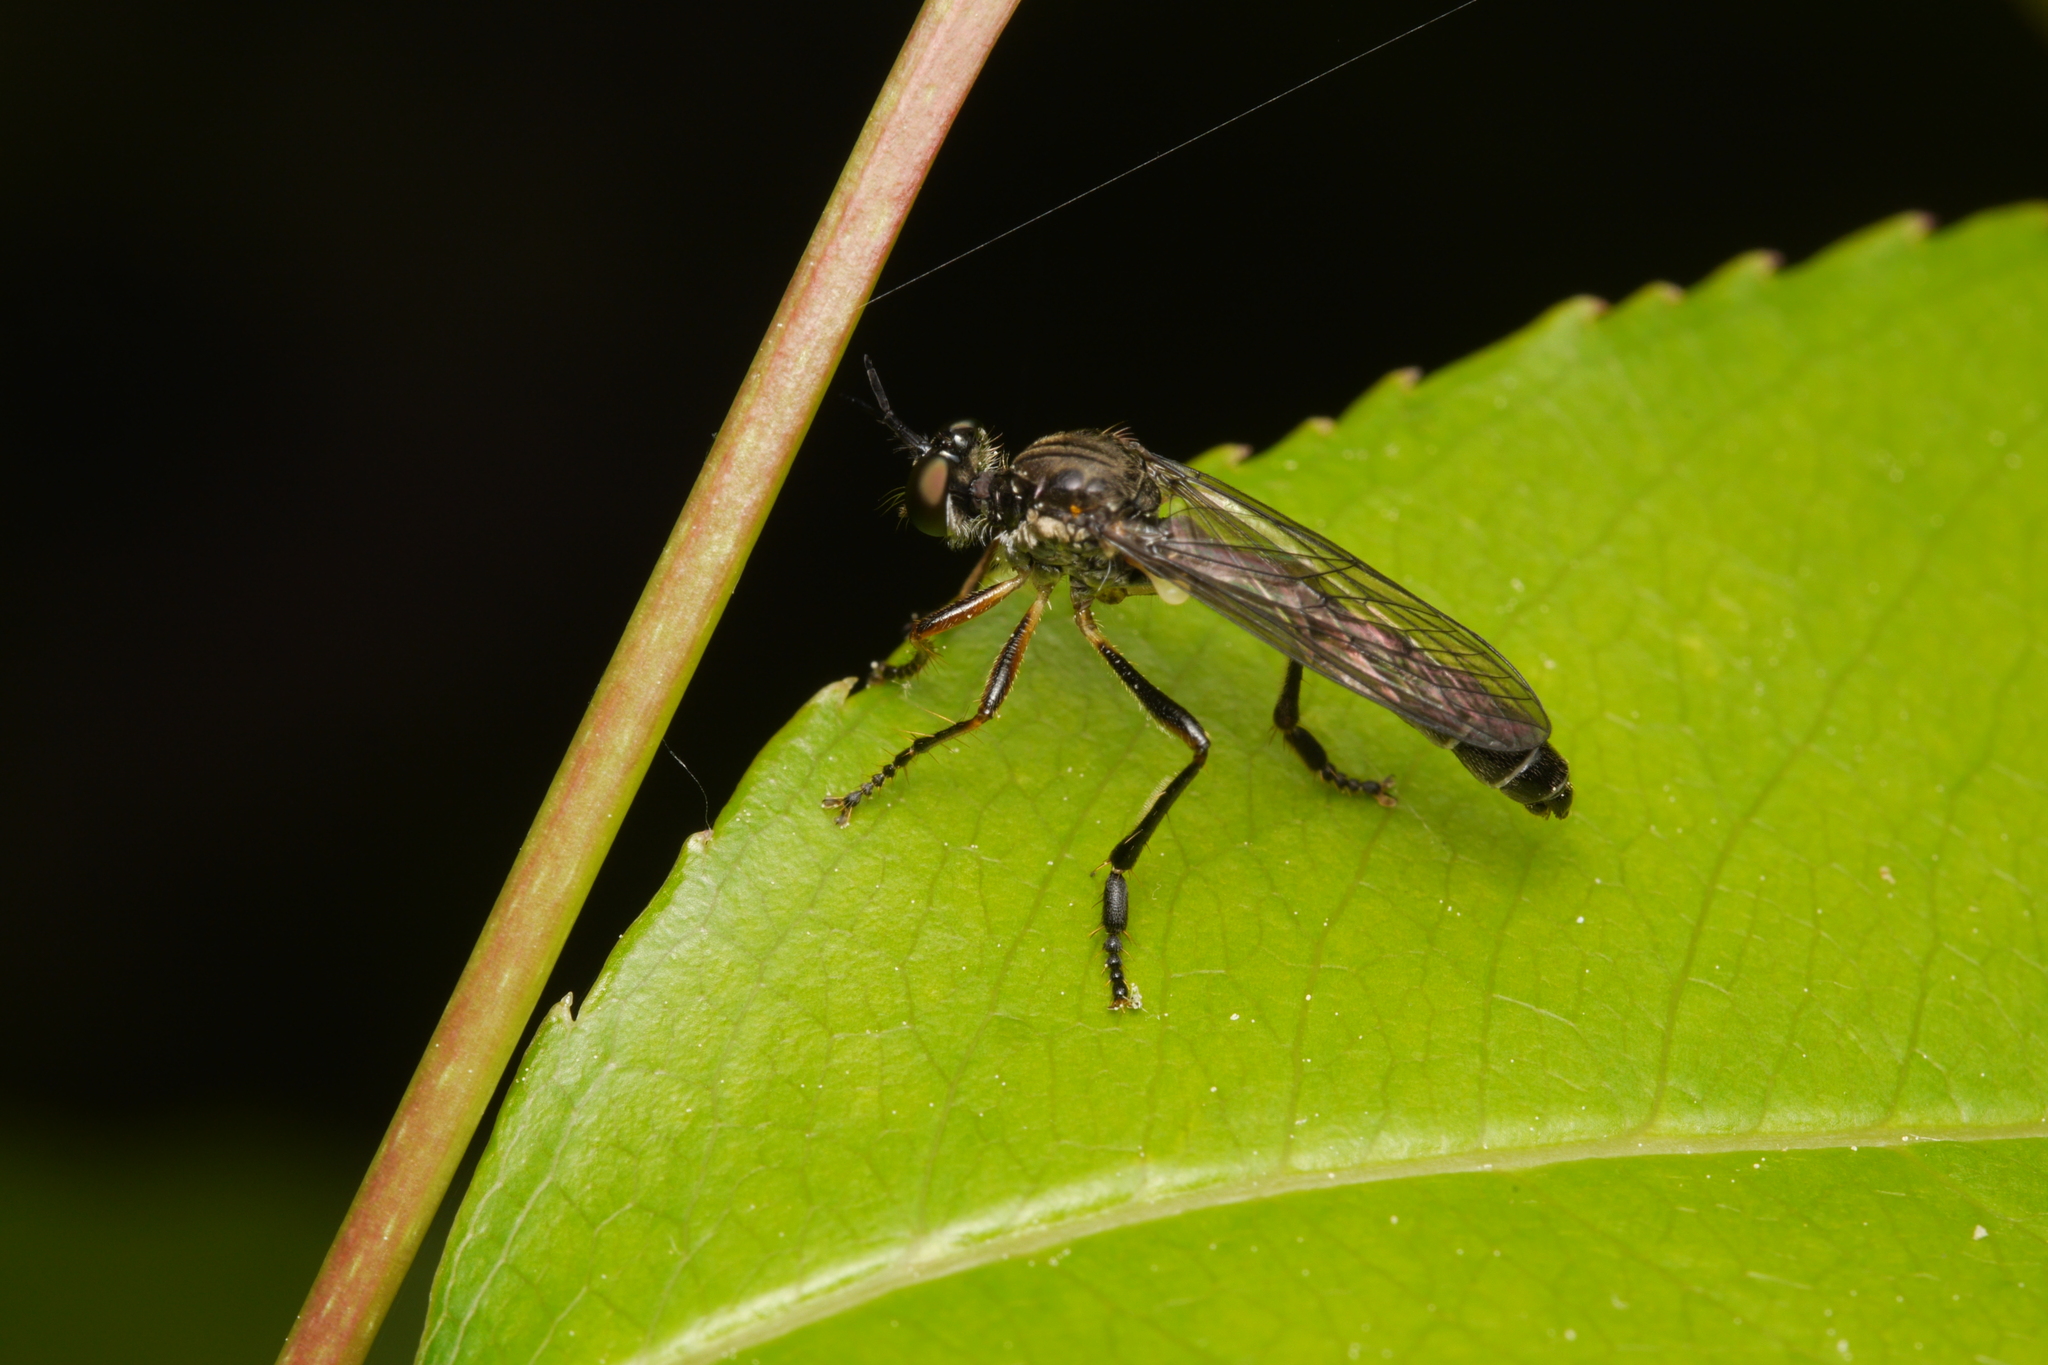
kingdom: Animalia
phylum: Arthropoda
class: Insecta
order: Diptera
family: Asilidae
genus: Dioctria
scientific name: Dioctria hyalipennis
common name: Stripe-legged robberfly
